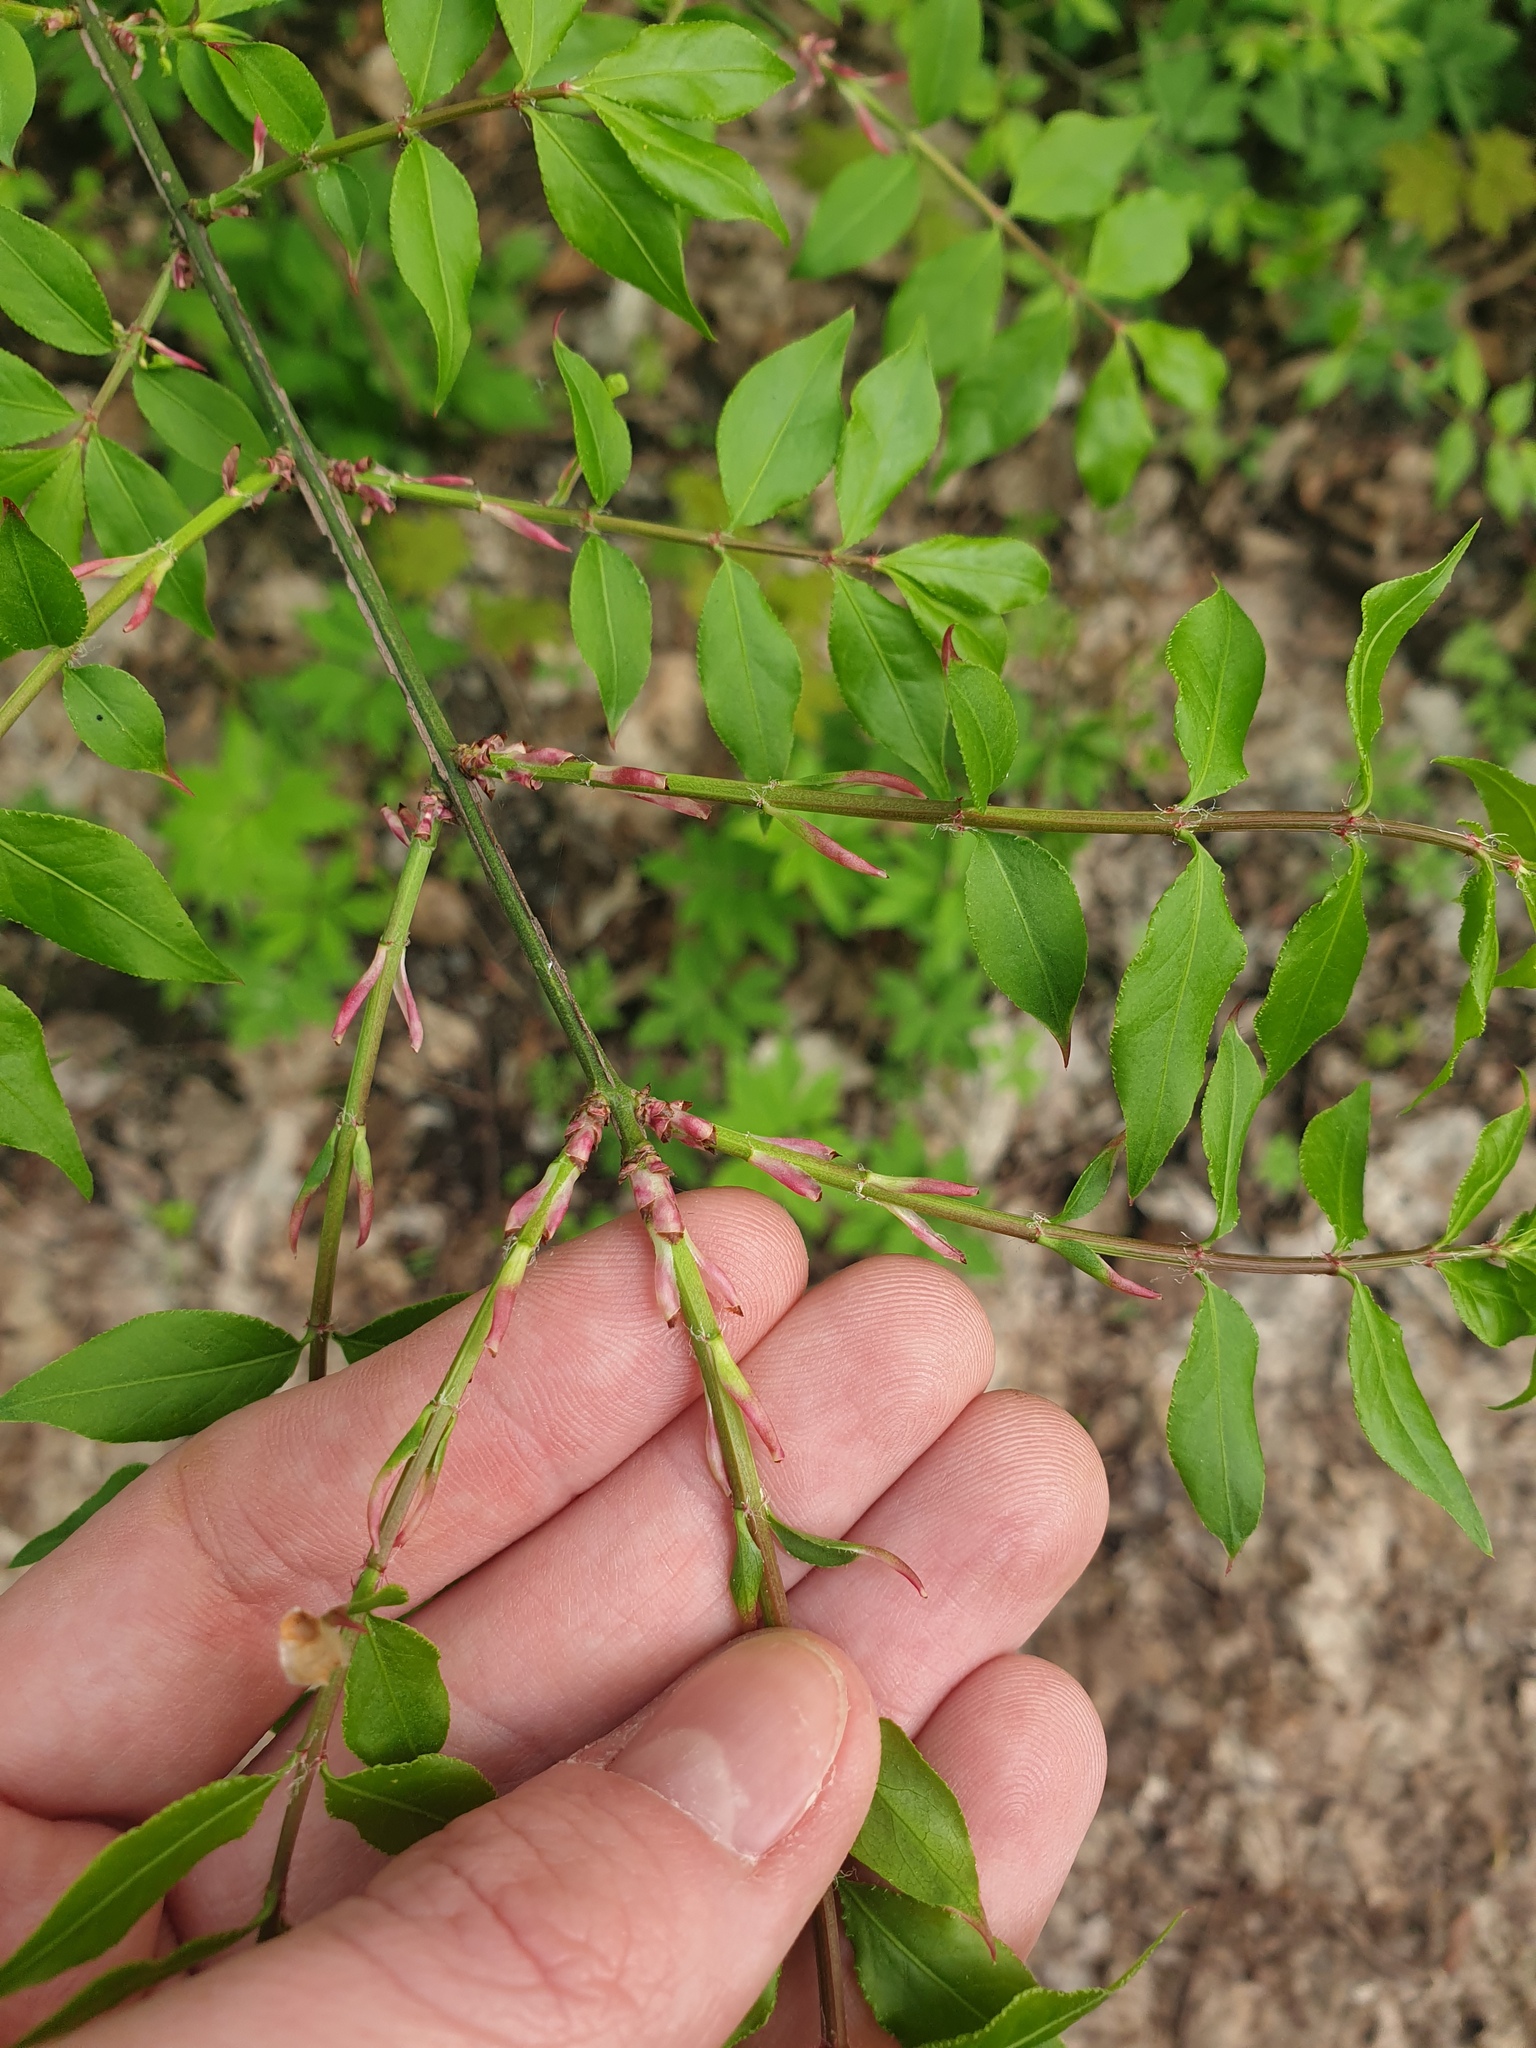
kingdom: Plantae
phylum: Tracheophyta
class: Magnoliopsida
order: Celastrales
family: Celastraceae
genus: Euonymus
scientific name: Euonymus alatus
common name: Winged euonymus
